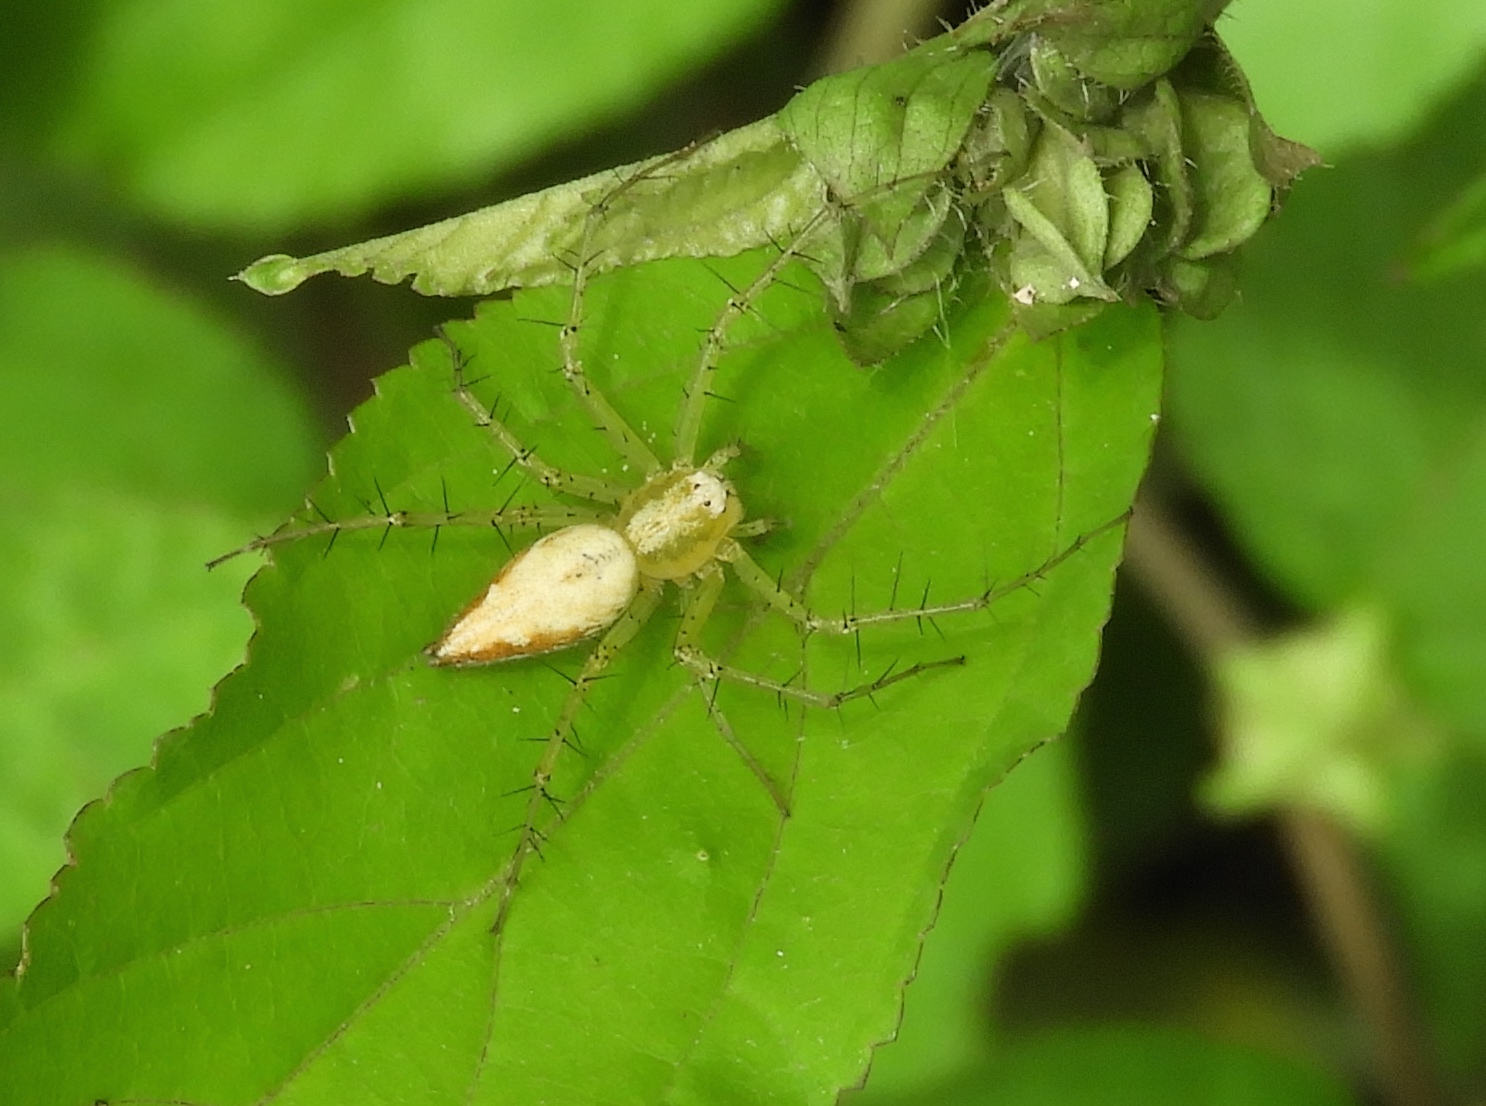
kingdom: Animalia
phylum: Arthropoda
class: Arachnida
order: Araneae
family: Oxyopidae
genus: Oxyopes
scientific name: Oxyopes
